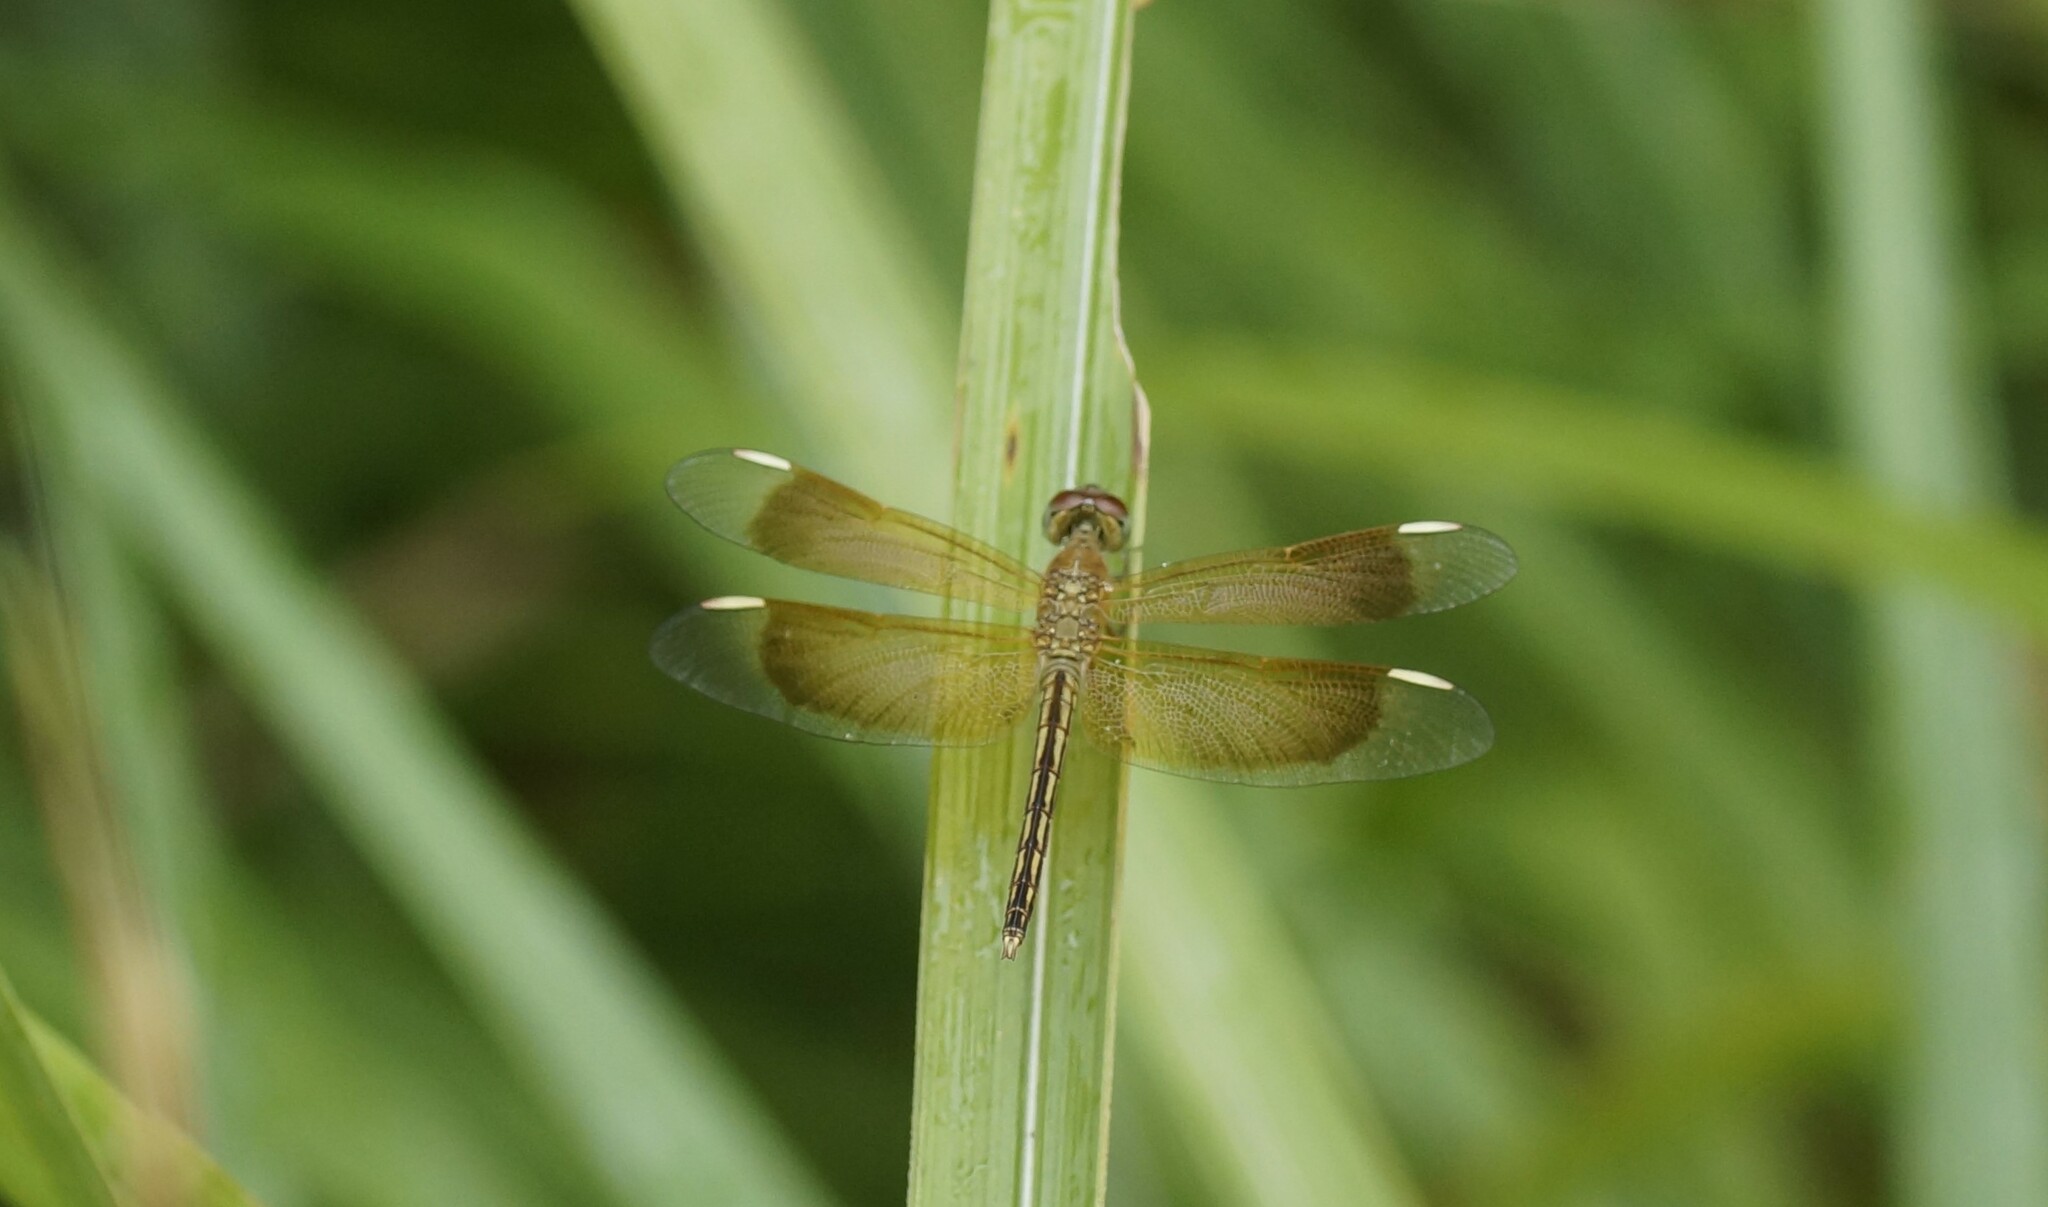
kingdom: Animalia
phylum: Arthropoda
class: Insecta
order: Odonata
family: Libellulidae
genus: Neurothemis
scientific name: Neurothemis stigmatizans
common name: Painted grasshawk
